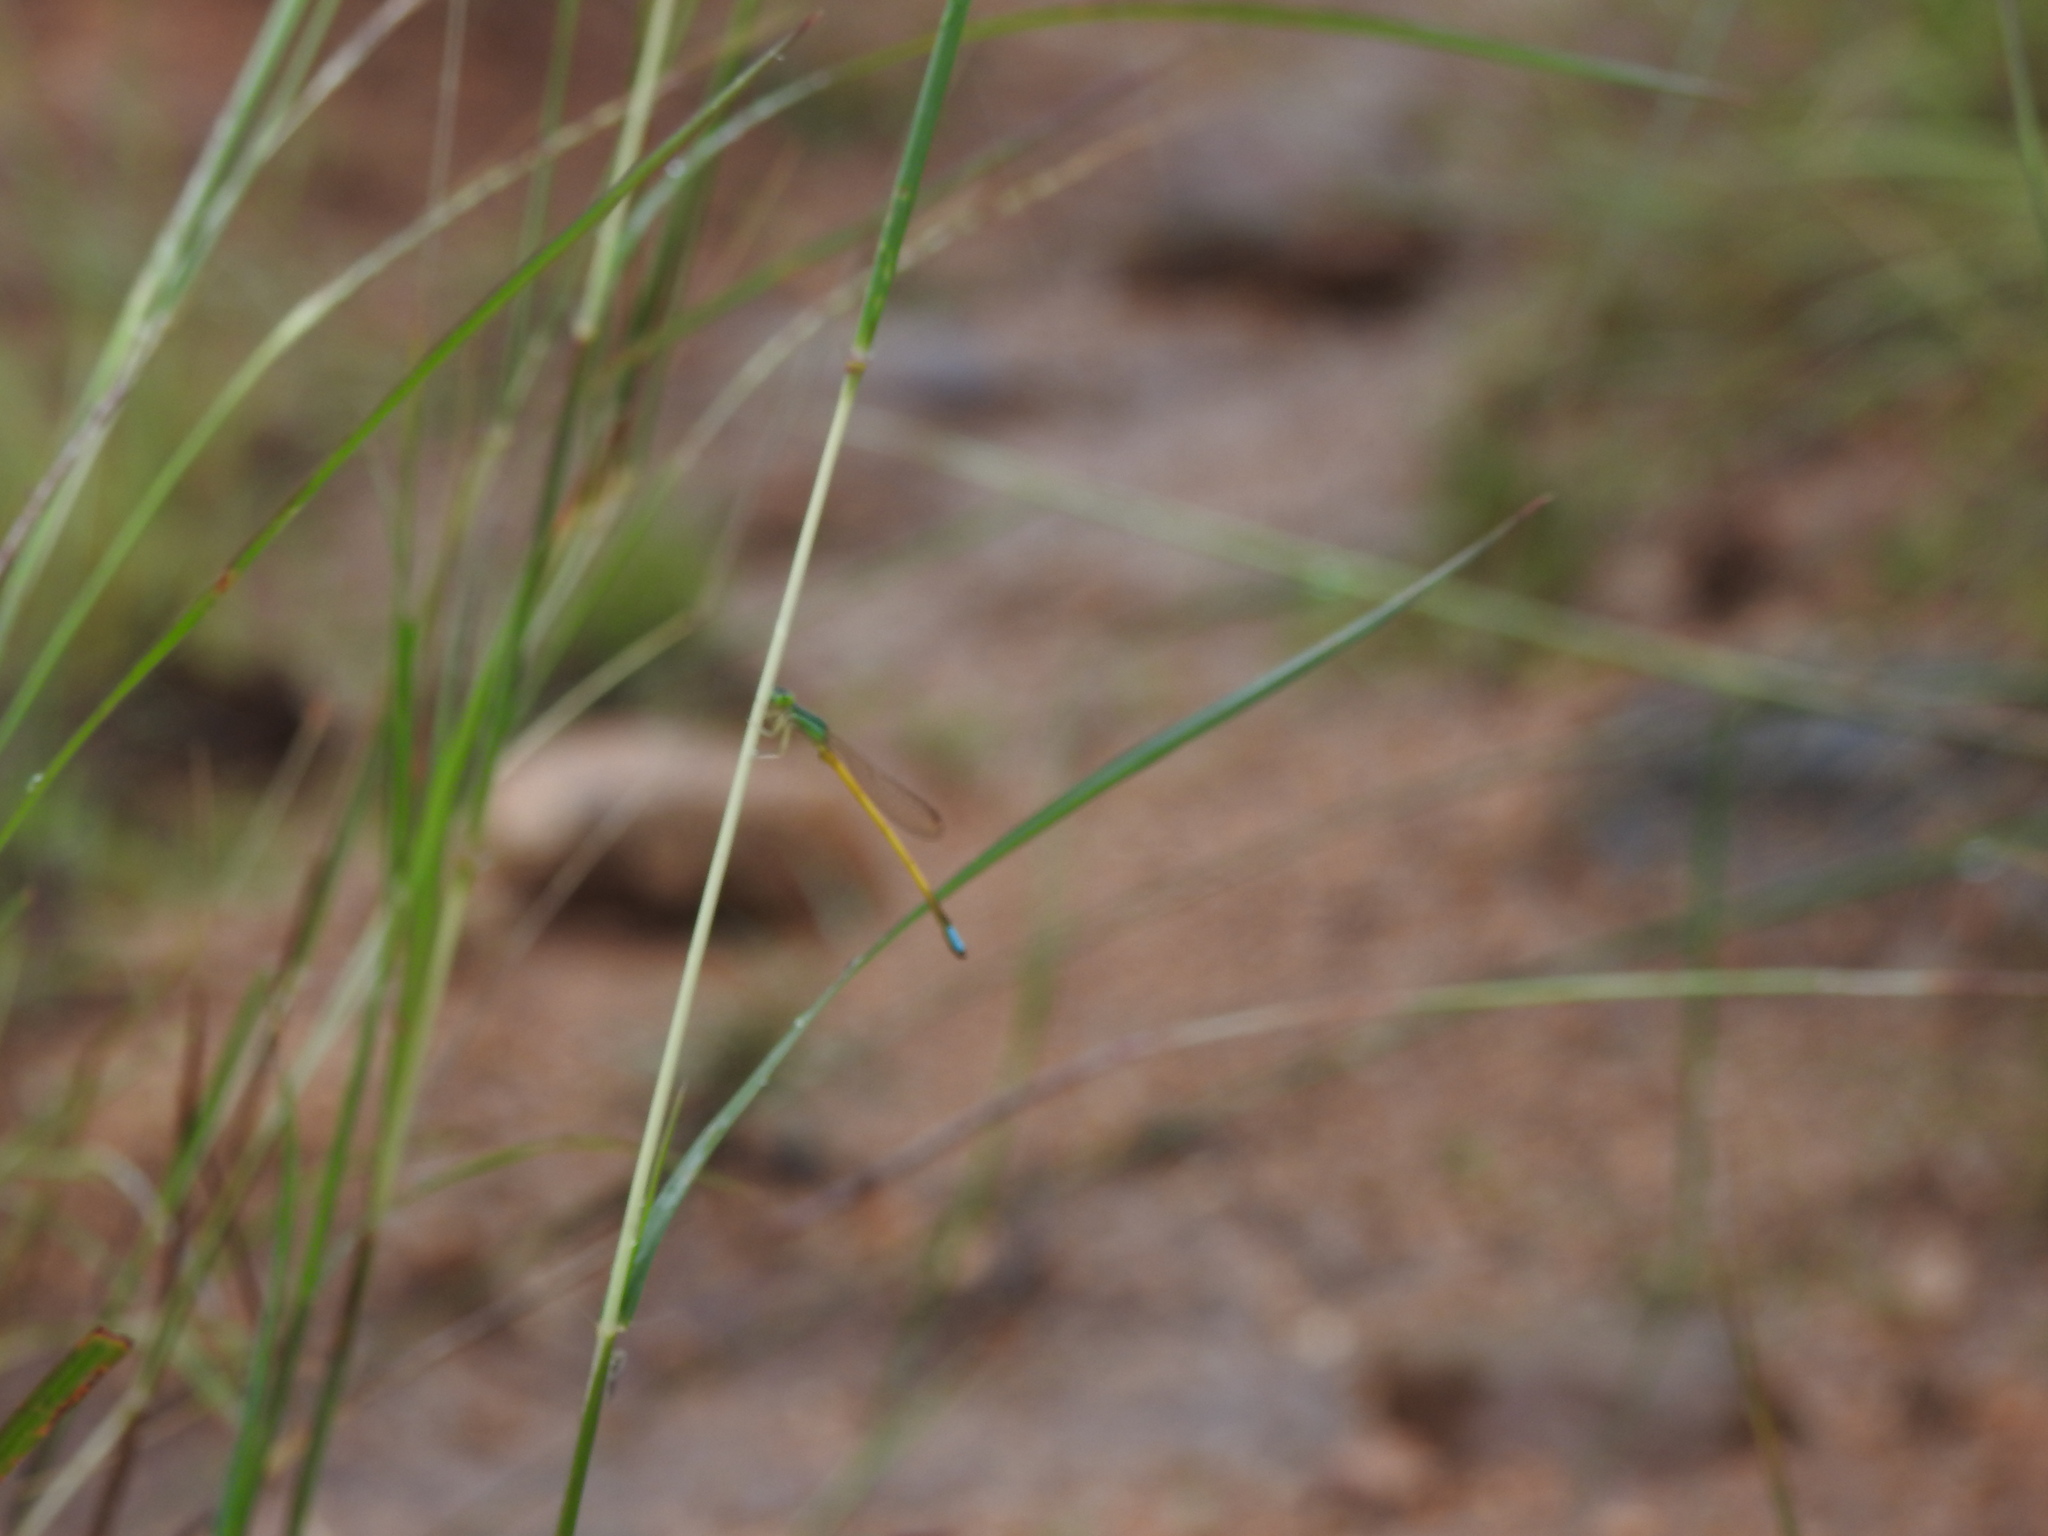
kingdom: Animalia
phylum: Arthropoda
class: Insecta
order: Odonata
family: Coenagrionidae
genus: Ischnura
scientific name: Ischnura rubilio
